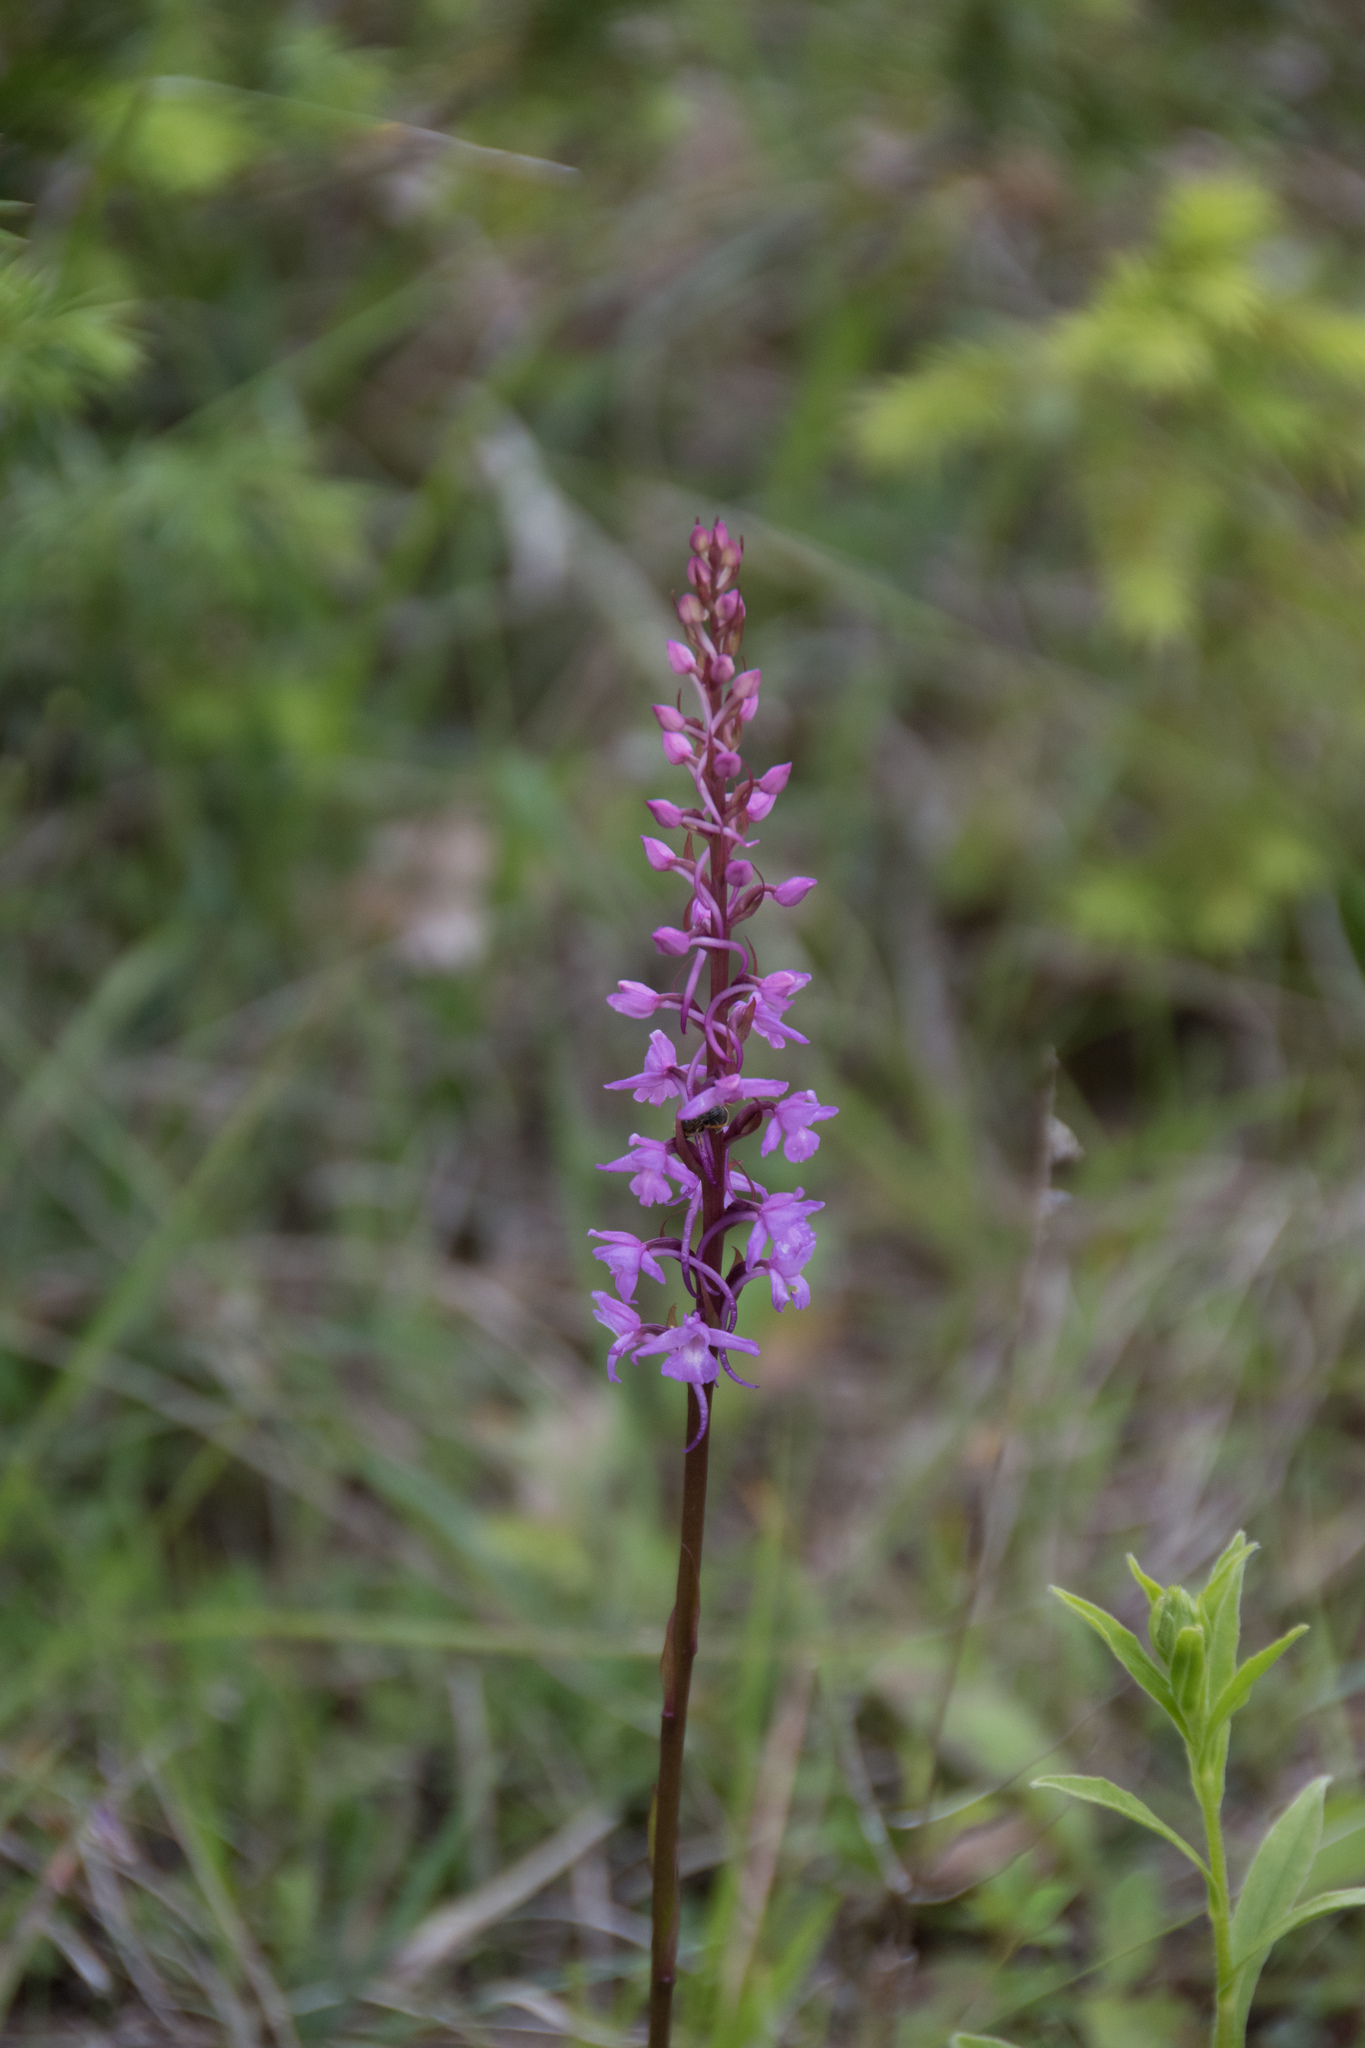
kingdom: Plantae
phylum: Tracheophyta
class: Liliopsida
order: Asparagales
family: Orchidaceae
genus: Gymnadenia
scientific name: Gymnadenia conopsea
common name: Fragrant orchid
